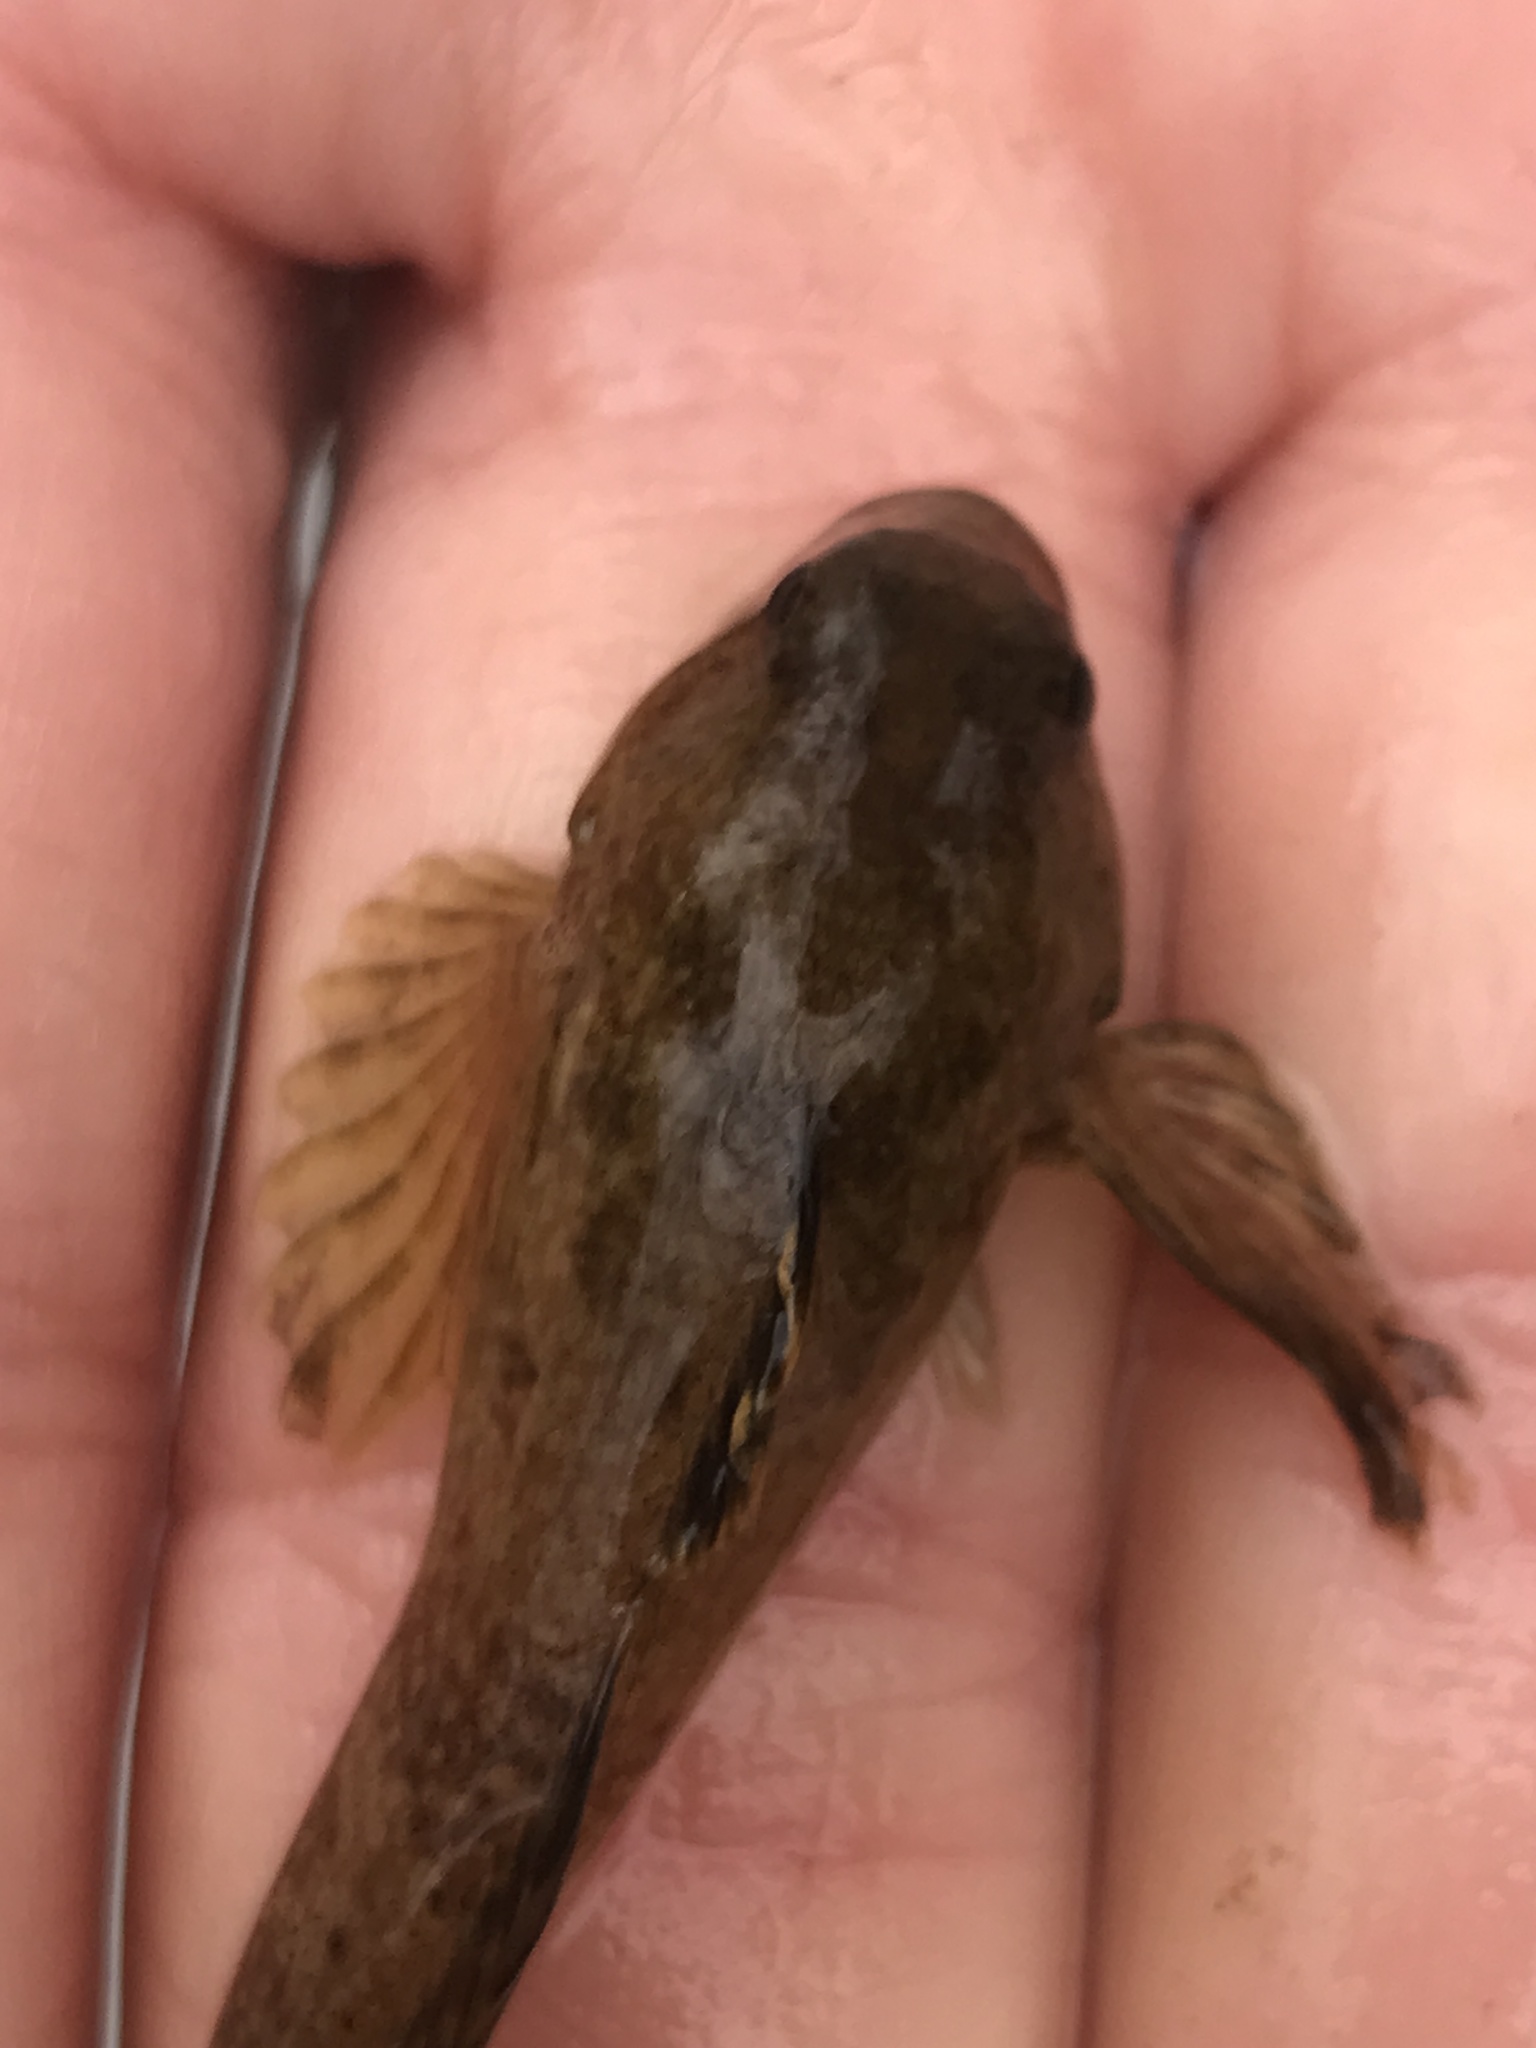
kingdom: Animalia
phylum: Chordata
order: Scorpaeniformes
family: Cottidae
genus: Cottus
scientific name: Cottus caeruleomentum
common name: Blue ridge sculpin
